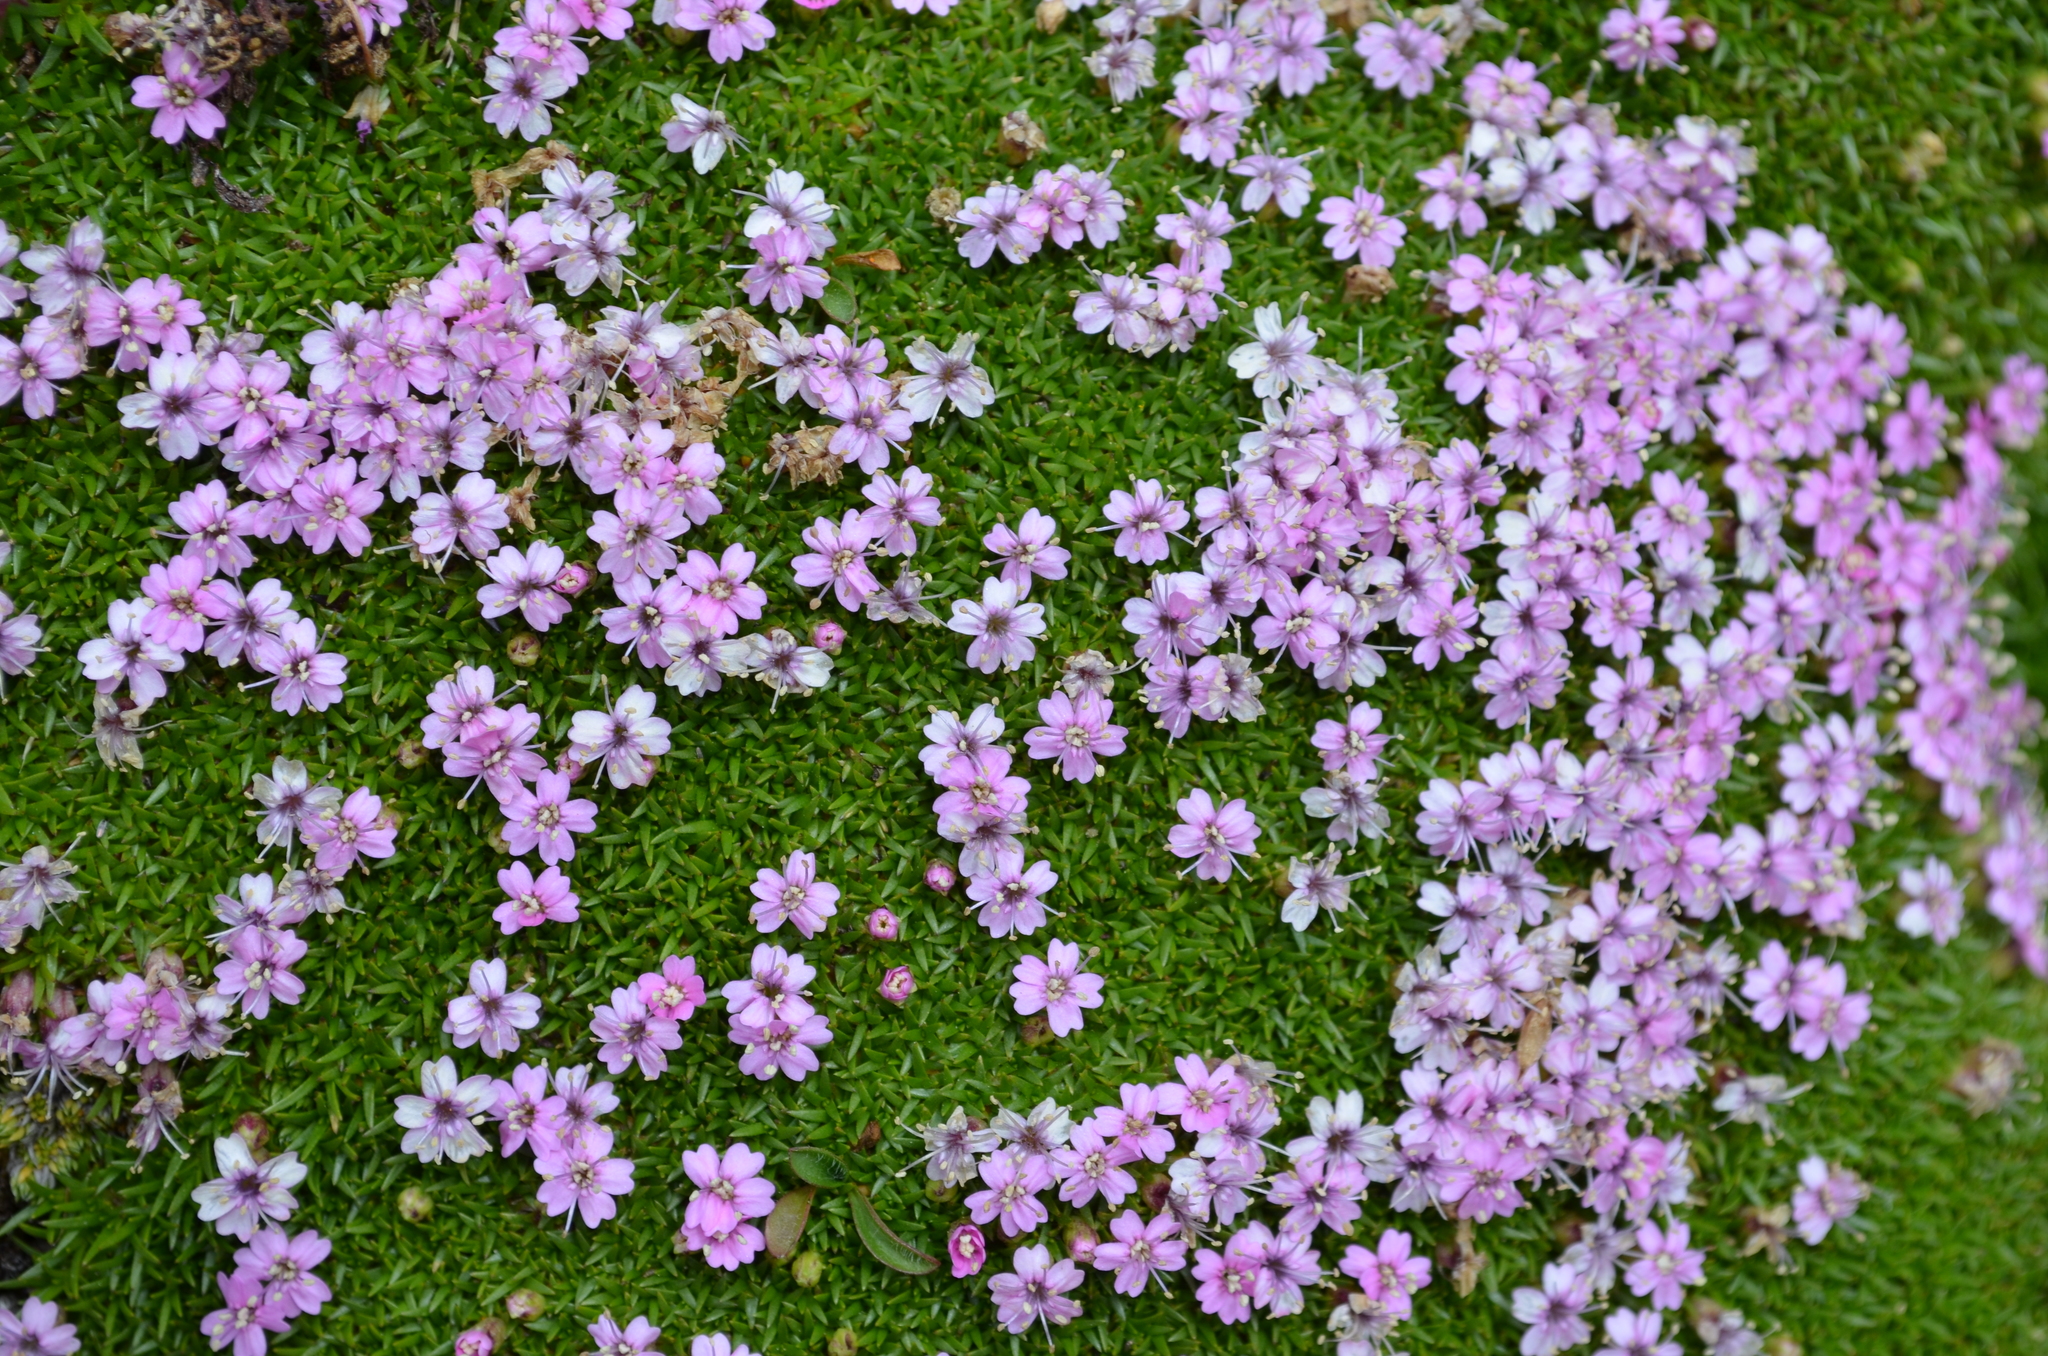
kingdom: Plantae
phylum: Tracheophyta
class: Magnoliopsida
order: Caryophyllales
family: Caryophyllaceae
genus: Silene
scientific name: Silene acaulis
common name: Moss campion
